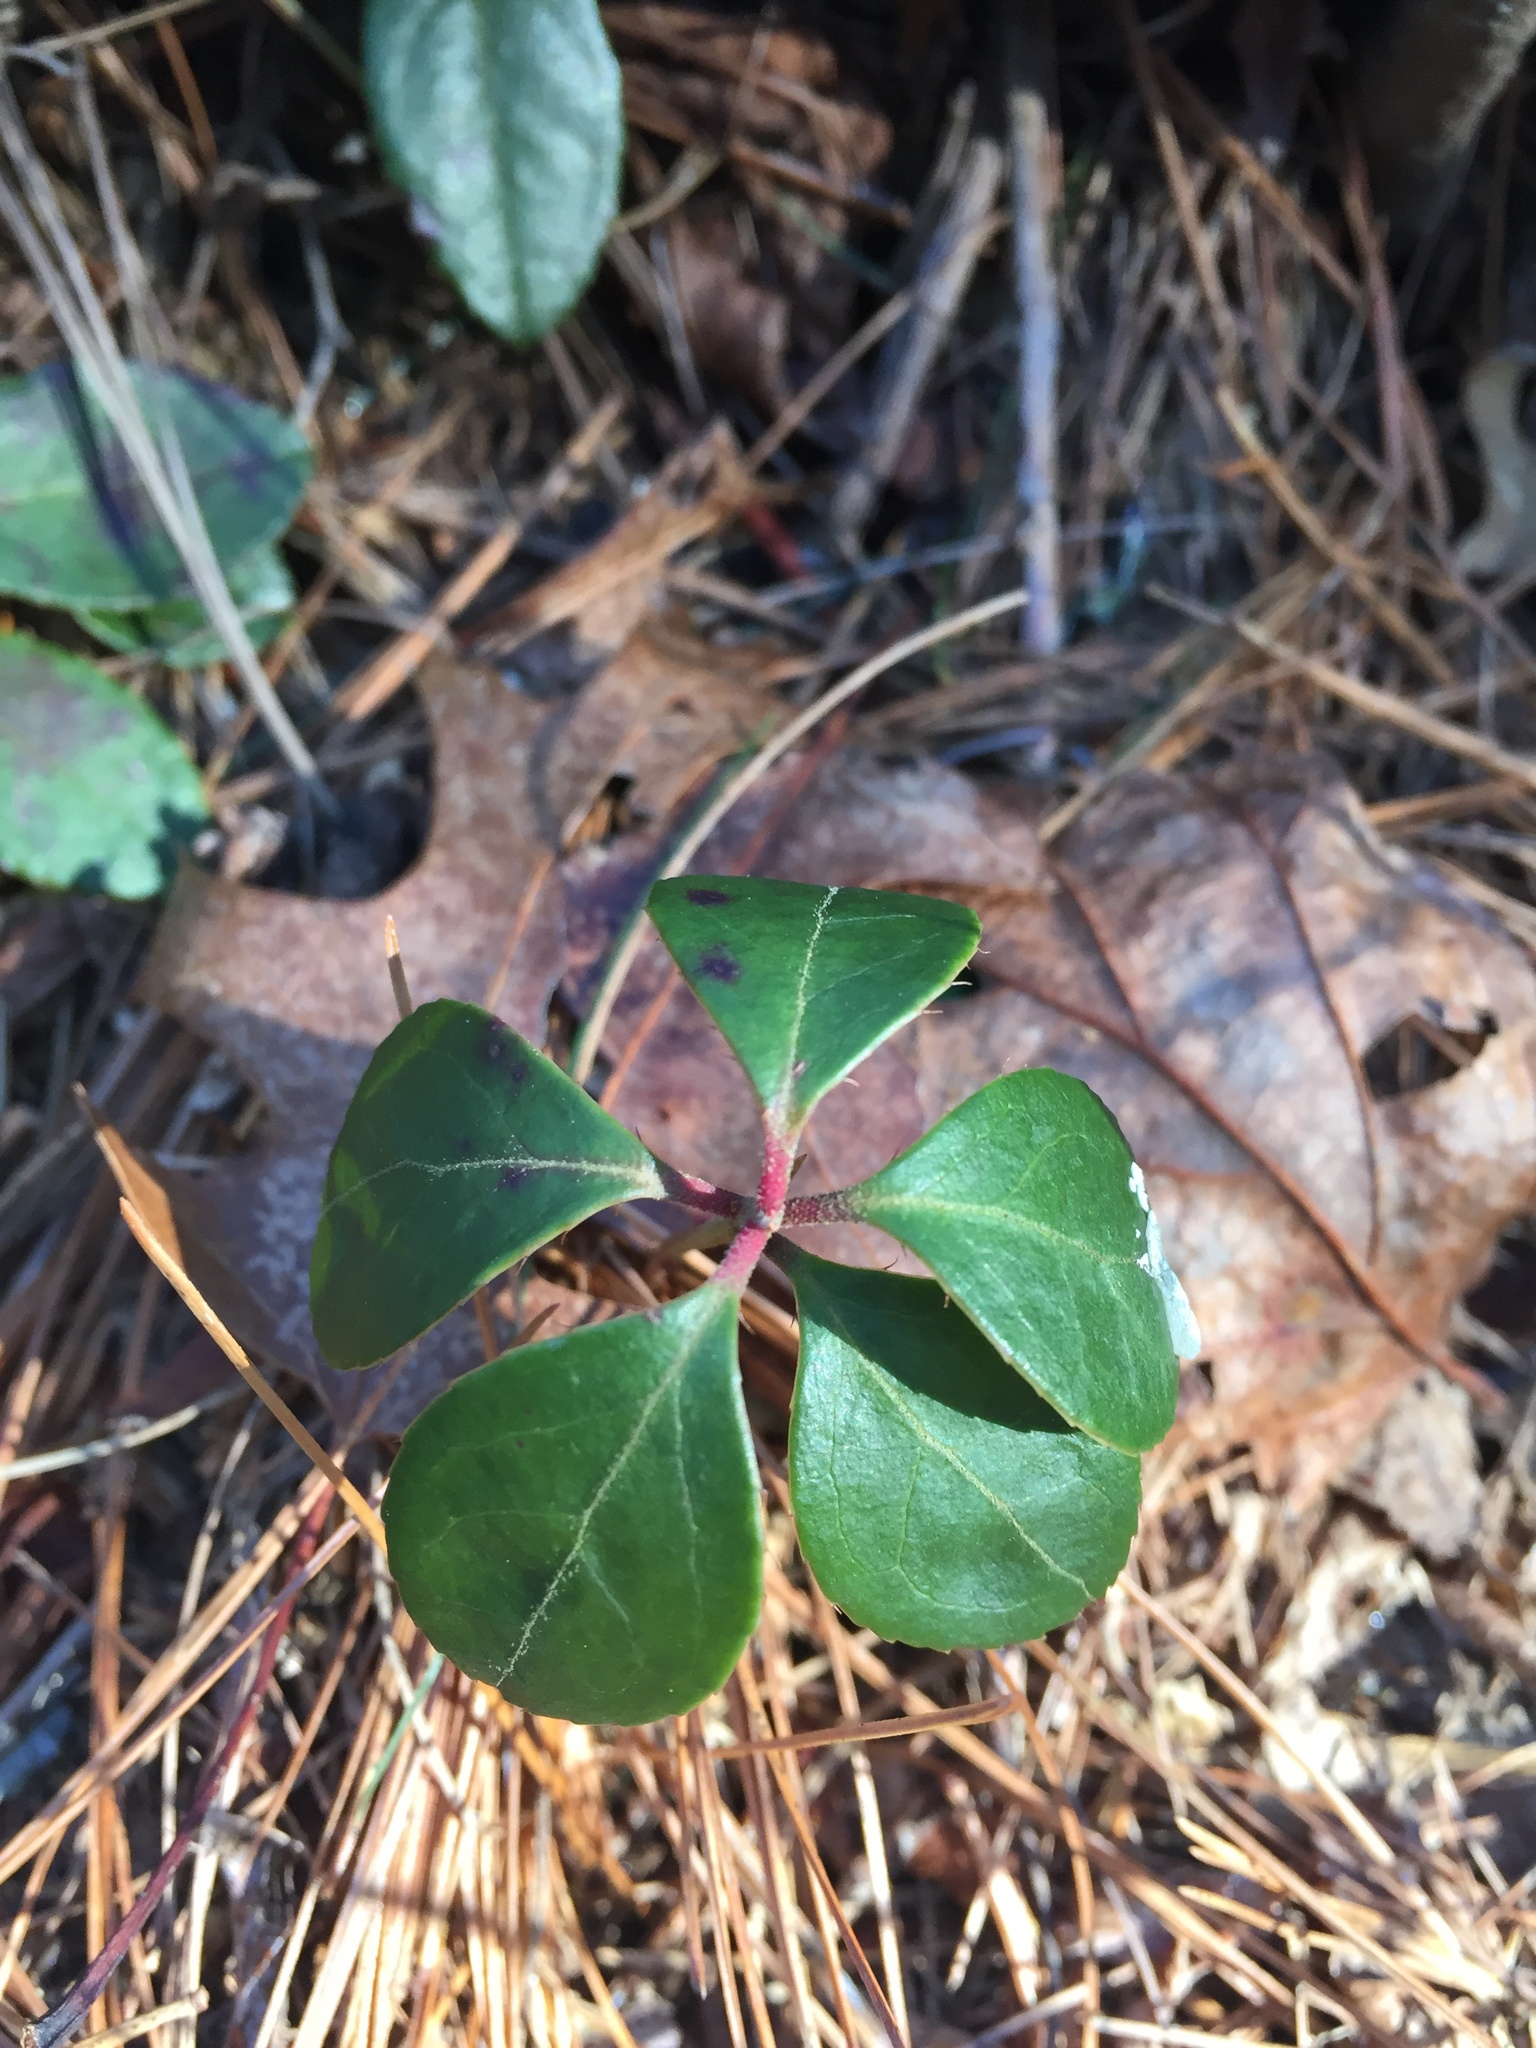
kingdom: Plantae
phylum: Tracheophyta
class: Magnoliopsida
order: Ericales
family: Ericaceae
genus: Gaultheria
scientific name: Gaultheria procumbens
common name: Checkerberry
